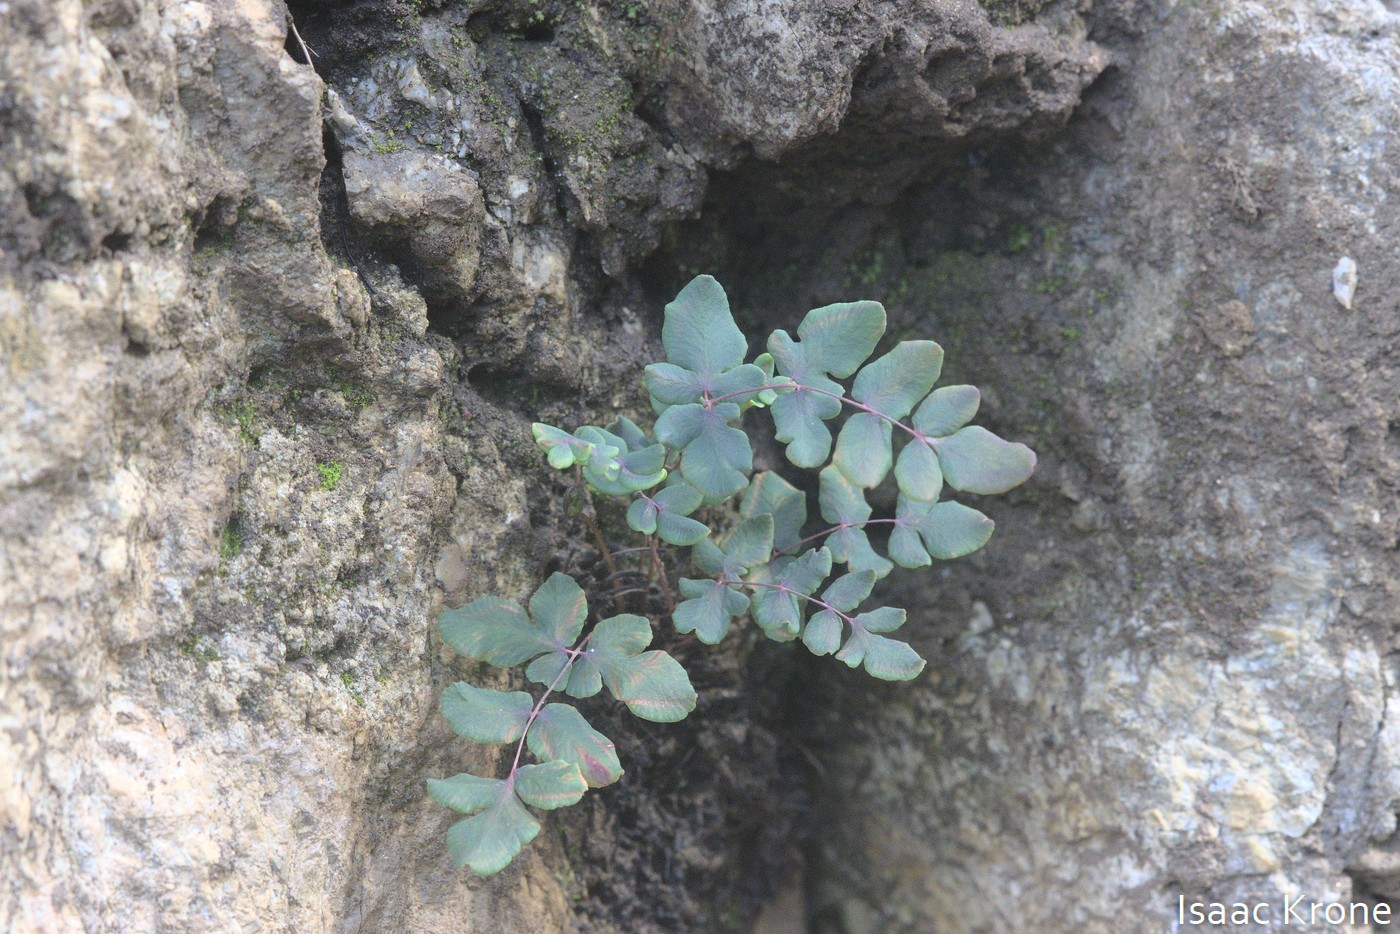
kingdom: Plantae
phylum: Tracheophyta
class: Polypodiopsida
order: Polypodiales
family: Pteridaceae
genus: Pellaea
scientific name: Pellaea andromedifolia
